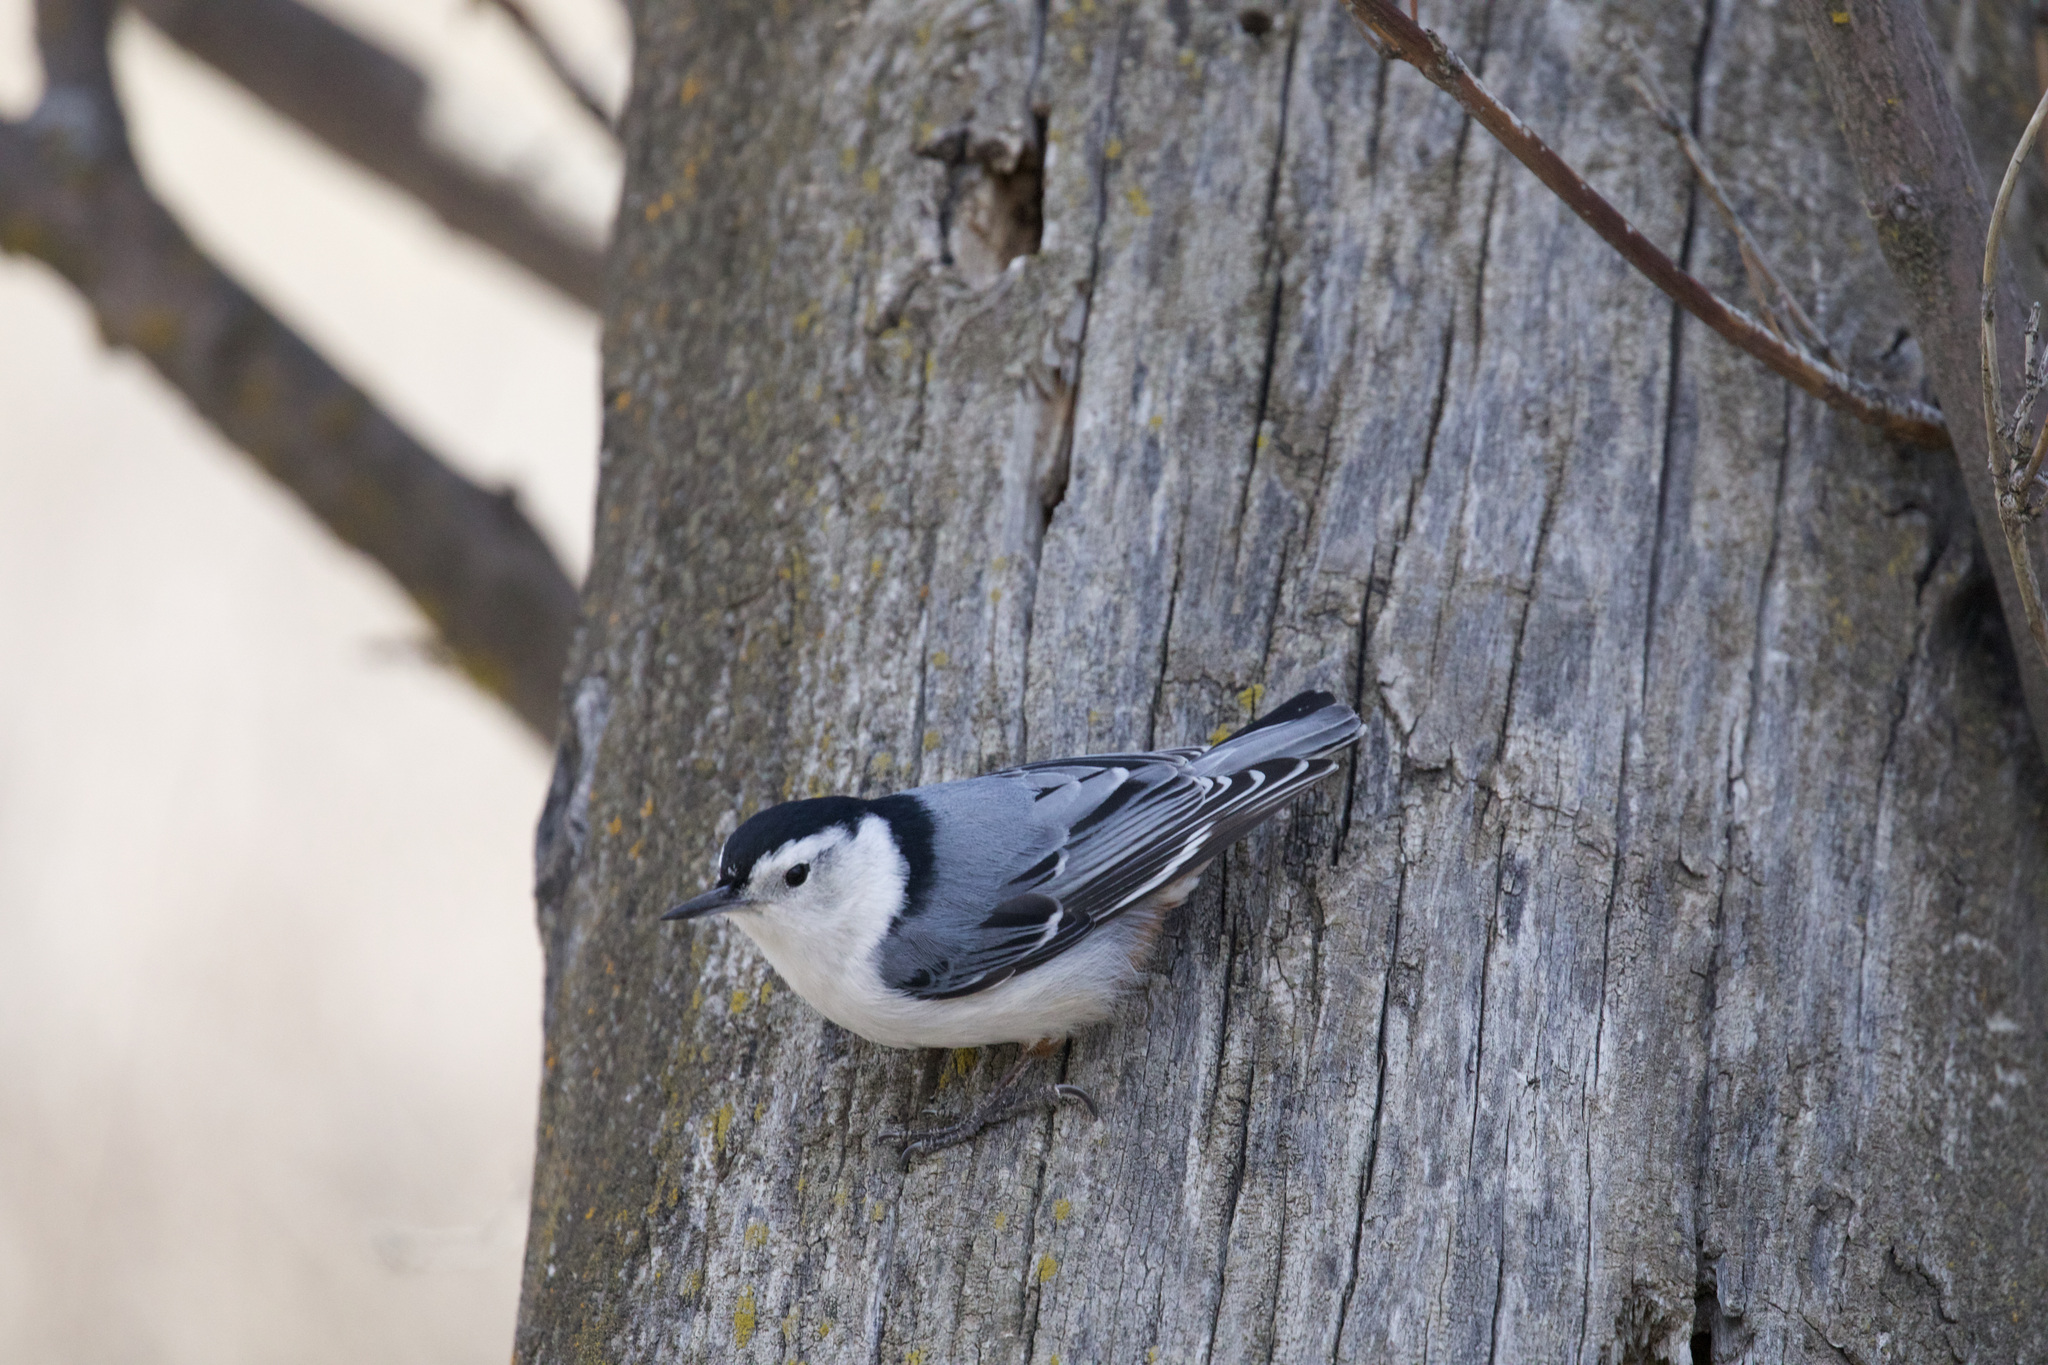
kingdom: Animalia
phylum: Chordata
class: Aves
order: Passeriformes
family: Sittidae
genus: Sitta
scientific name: Sitta carolinensis
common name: White-breasted nuthatch
